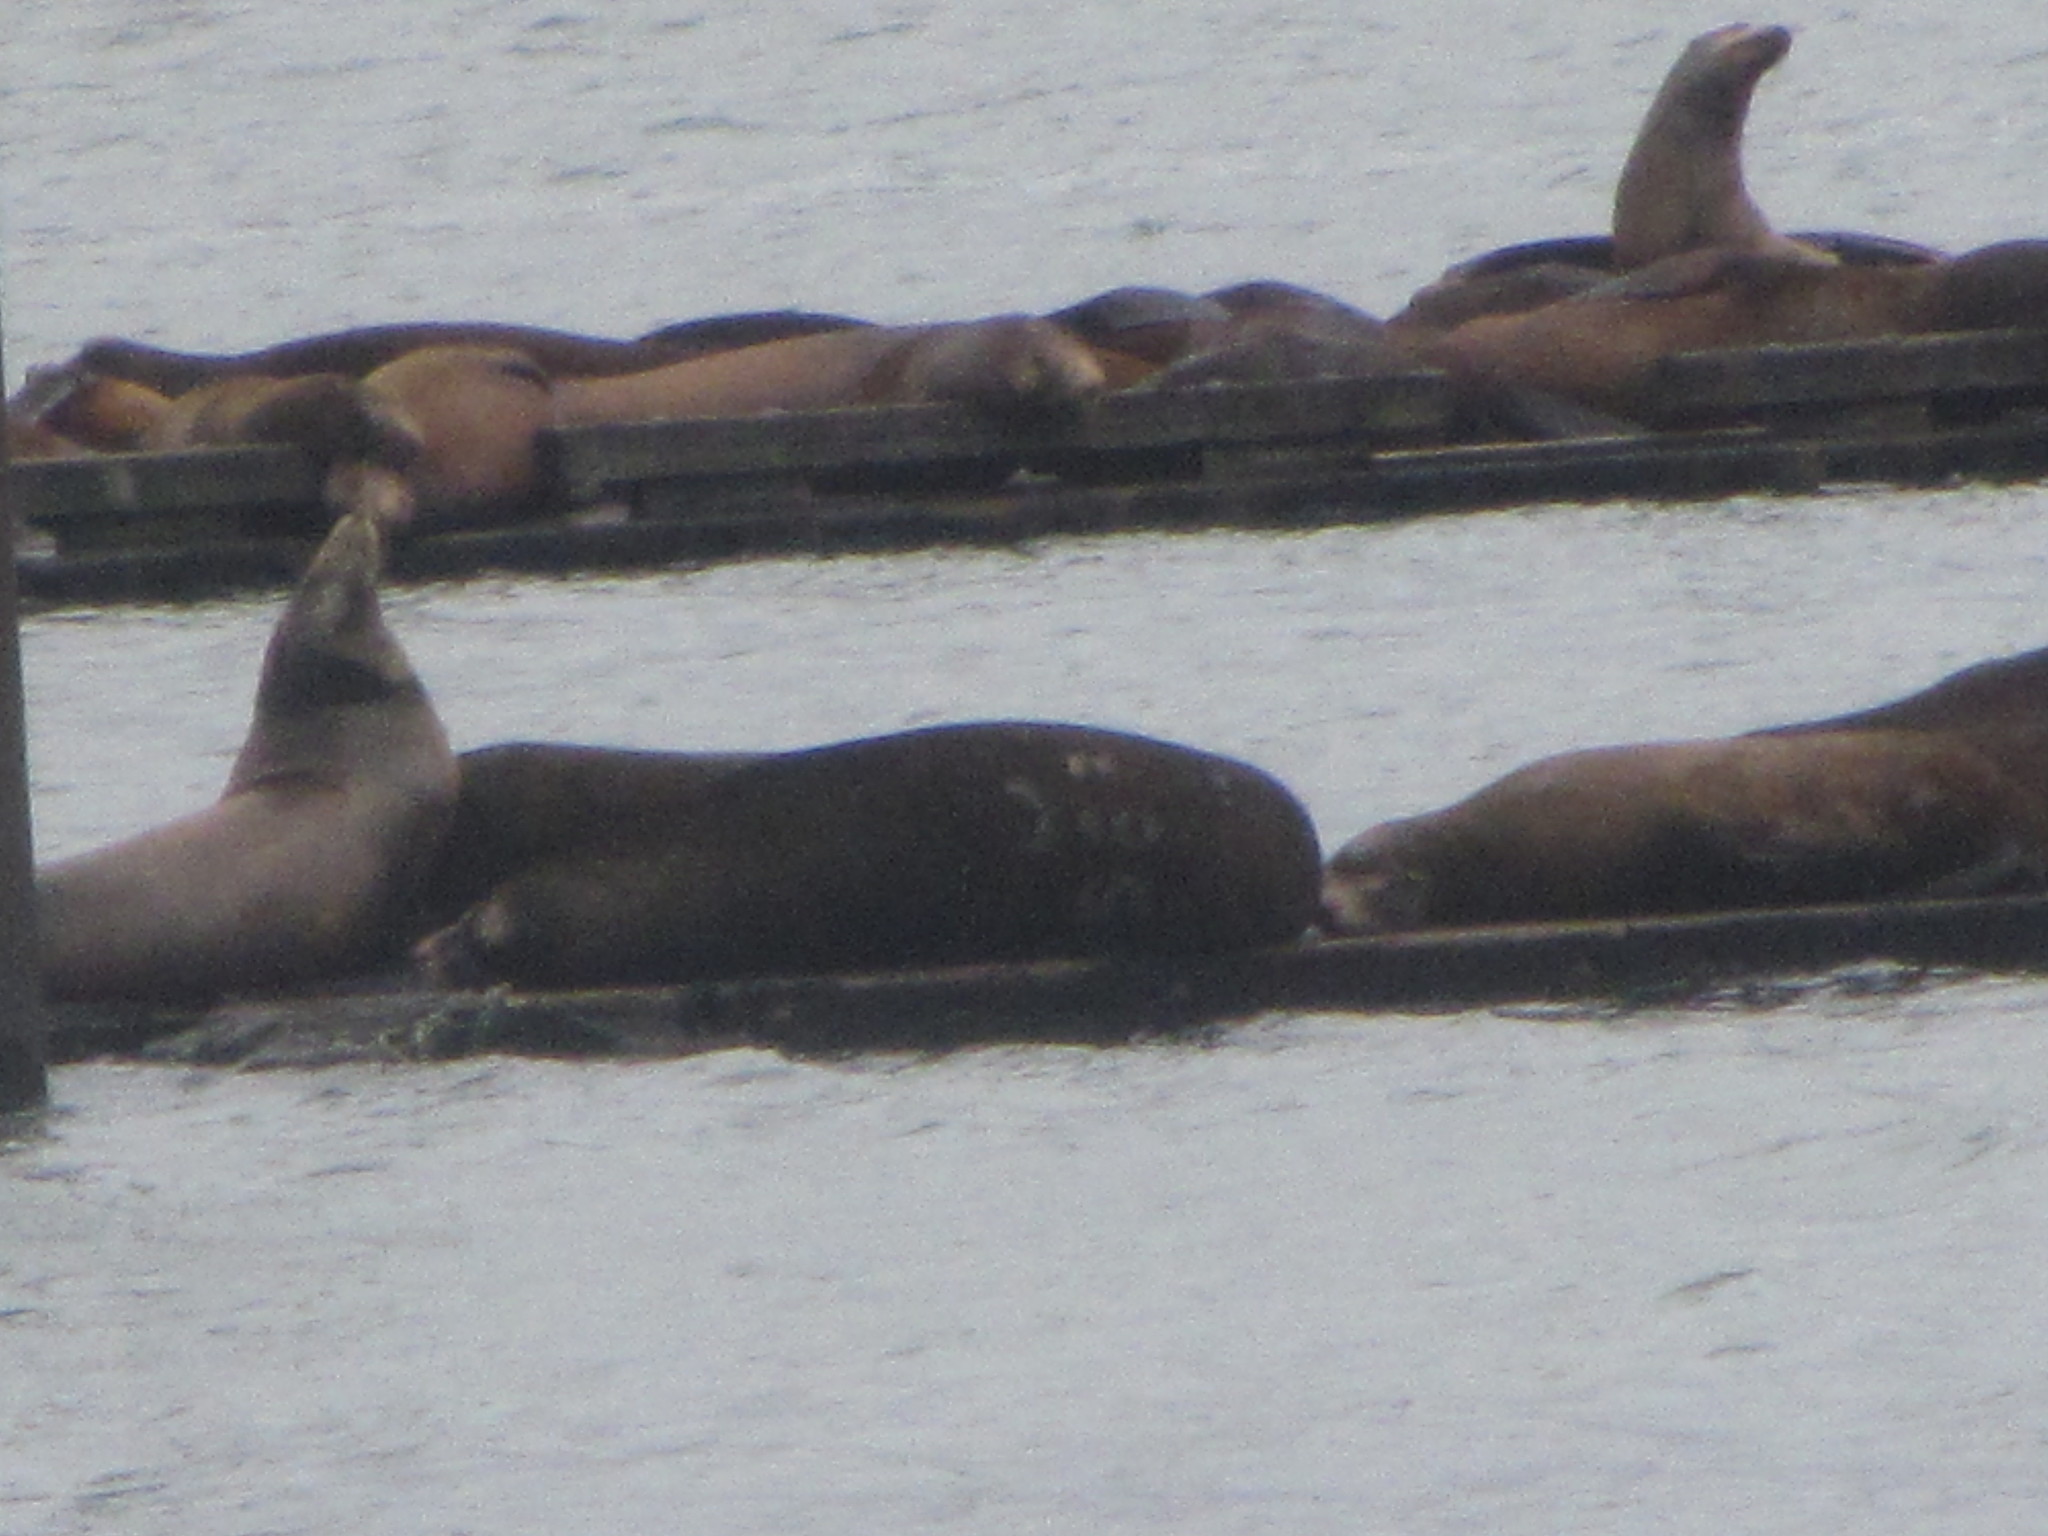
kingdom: Animalia
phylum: Chordata
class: Mammalia
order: Carnivora
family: Otariidae
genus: Zalophus
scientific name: Zalophus californianus
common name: California sea lion
